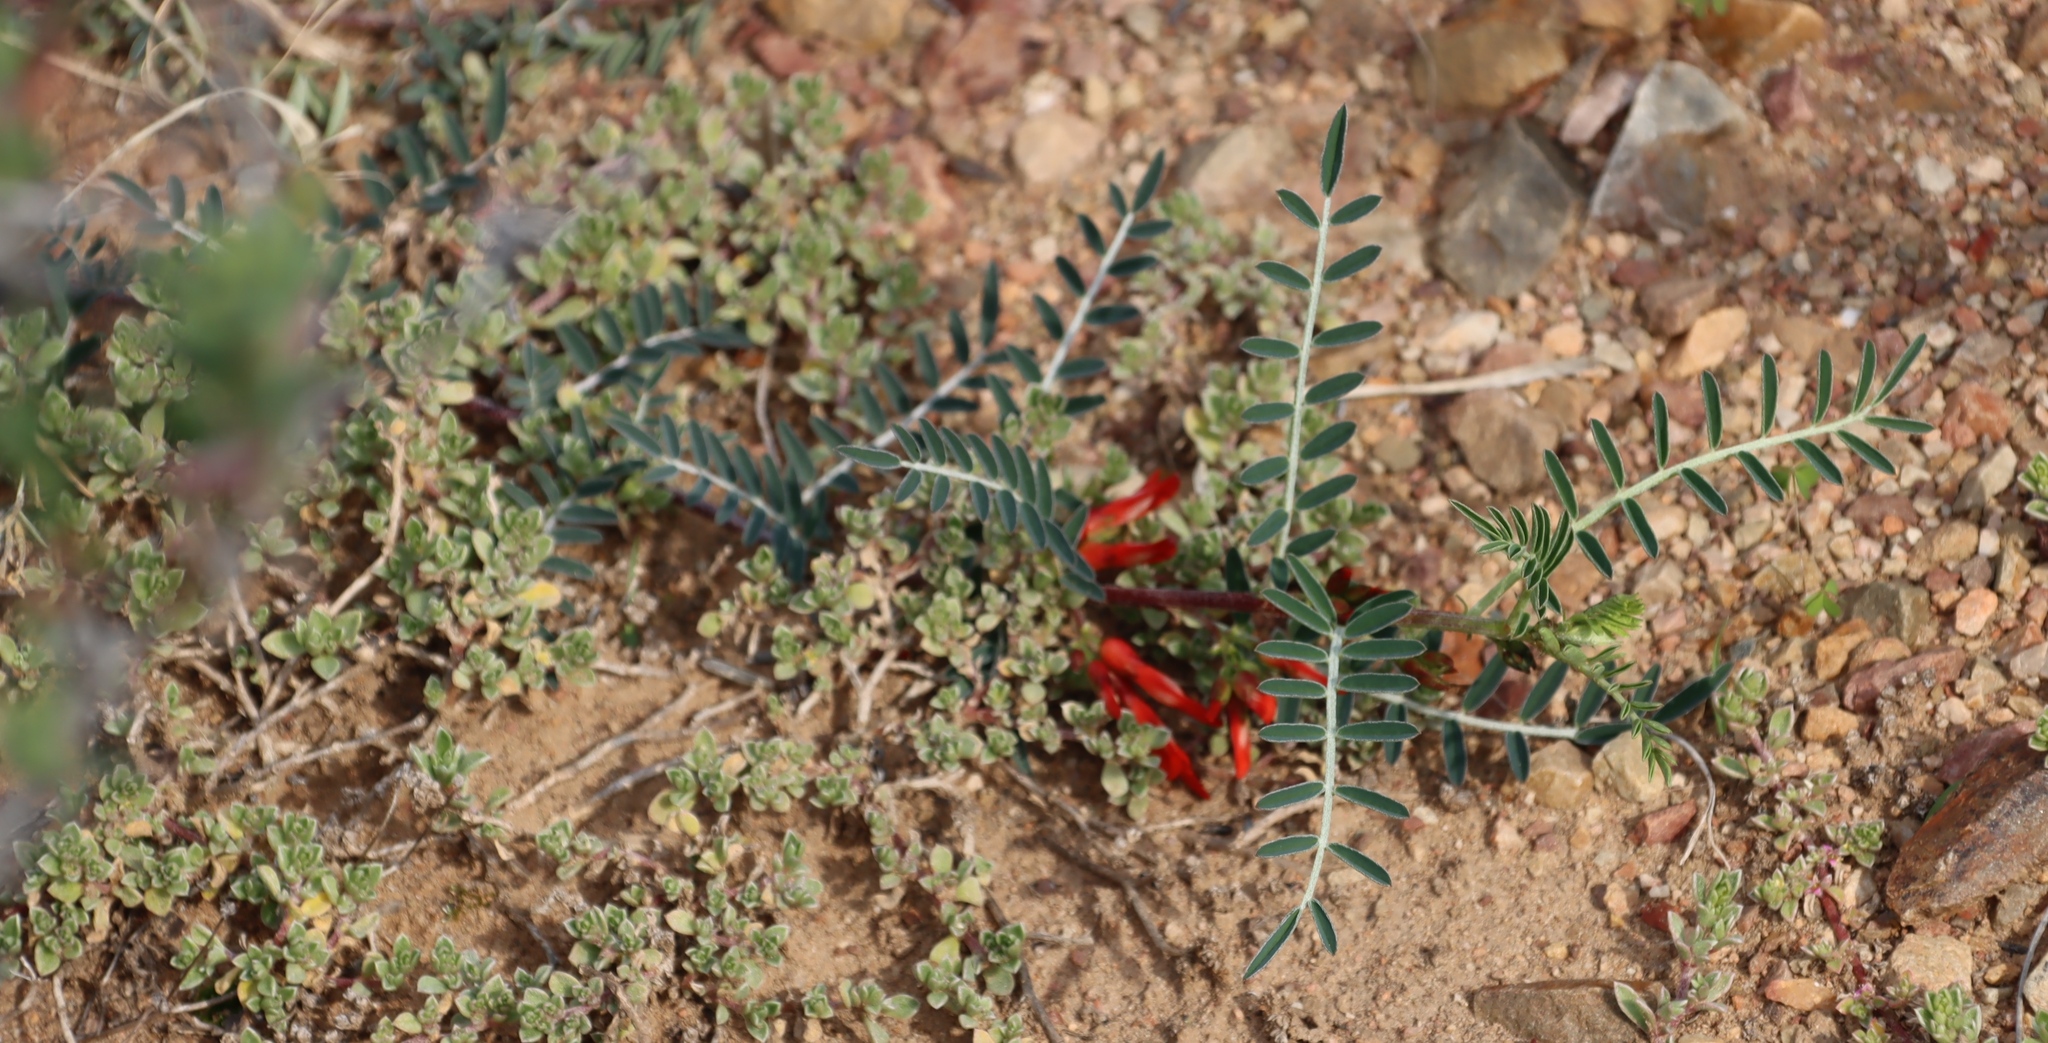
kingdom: Plantae
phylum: Tracheophyta
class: Magnoliopsida
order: Fabales
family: Fabaceae
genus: Lessertia
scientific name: Lessertia frutescens
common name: Balloon-pea
